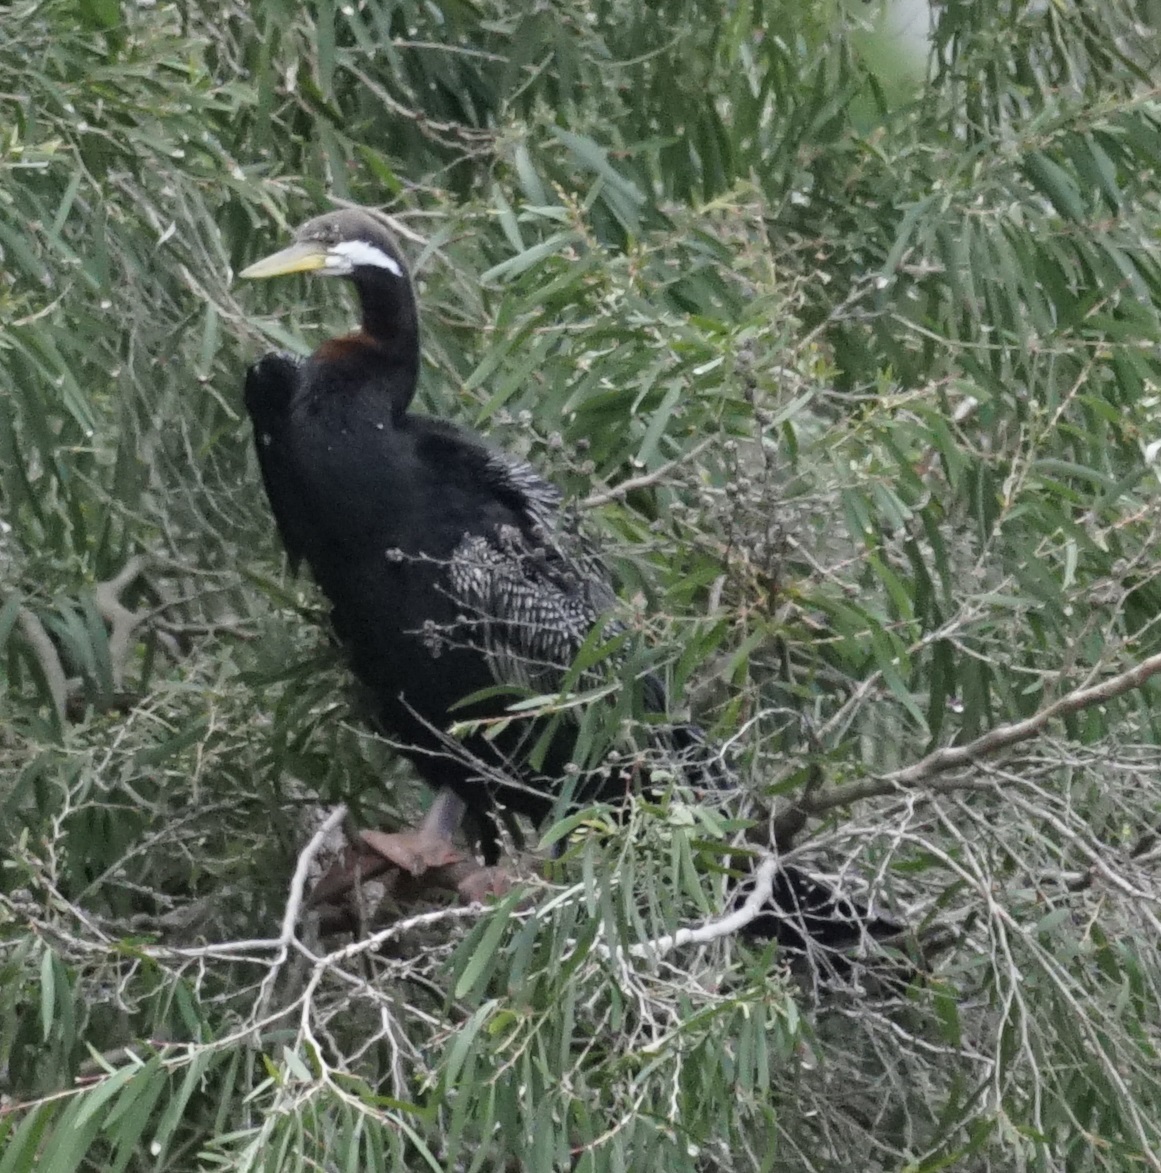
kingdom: Animalia
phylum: Chordata
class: Aves
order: Suliformes
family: Anhingidae
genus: Anhinga
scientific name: Anhinga novaehollandiae
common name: Australasian darter
